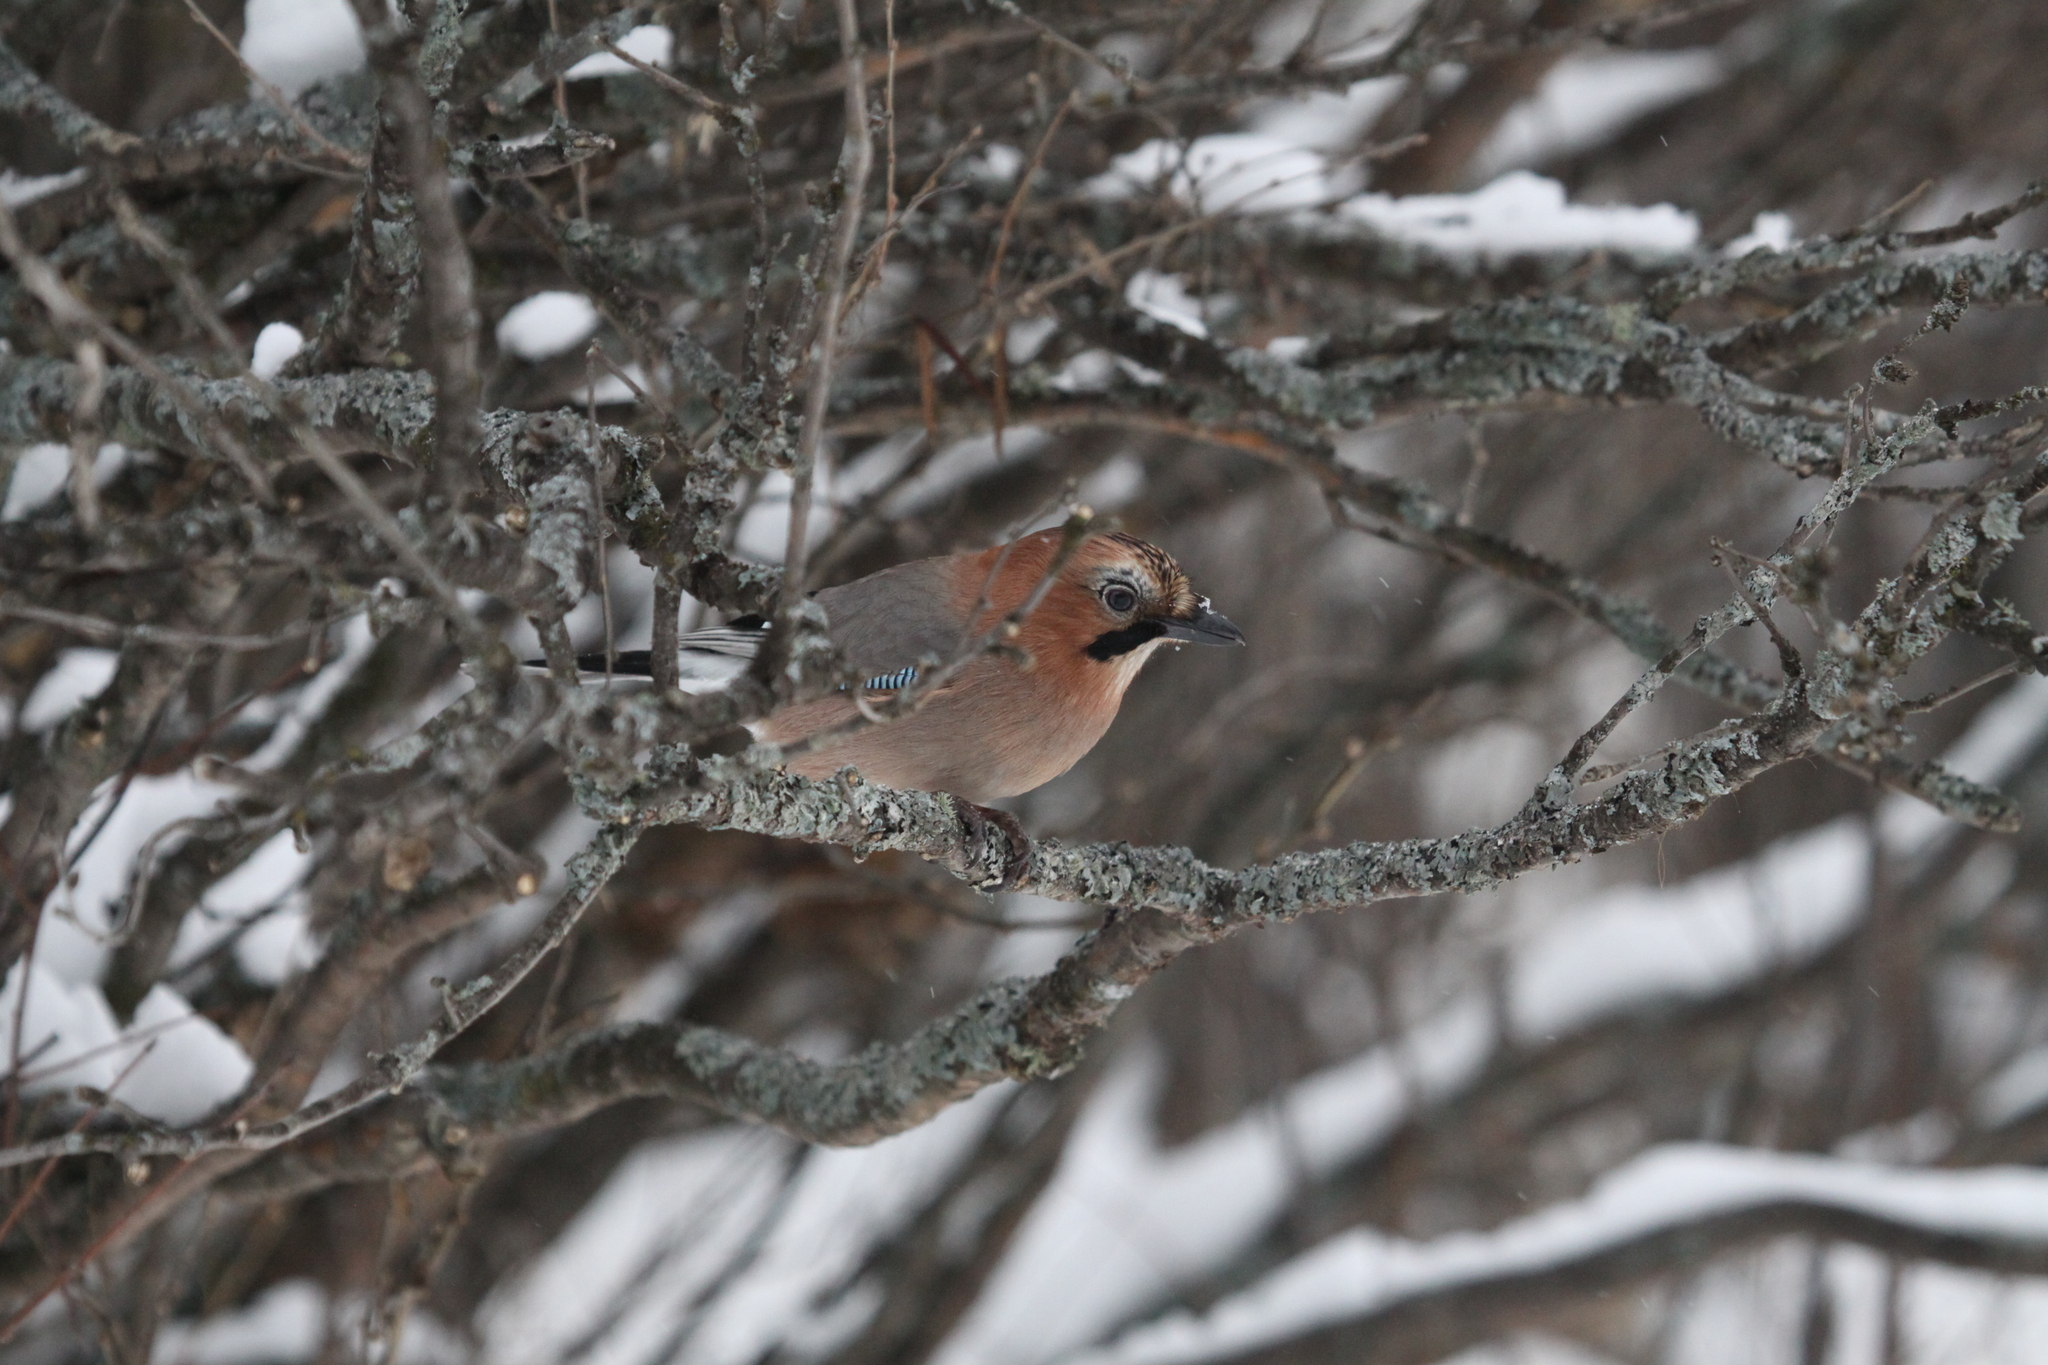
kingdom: Animalia
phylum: Chordata
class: Aves
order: Passeriformes
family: Corvidae
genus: Garrulus
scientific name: Garrulus glandarius
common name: Eurasian jay
